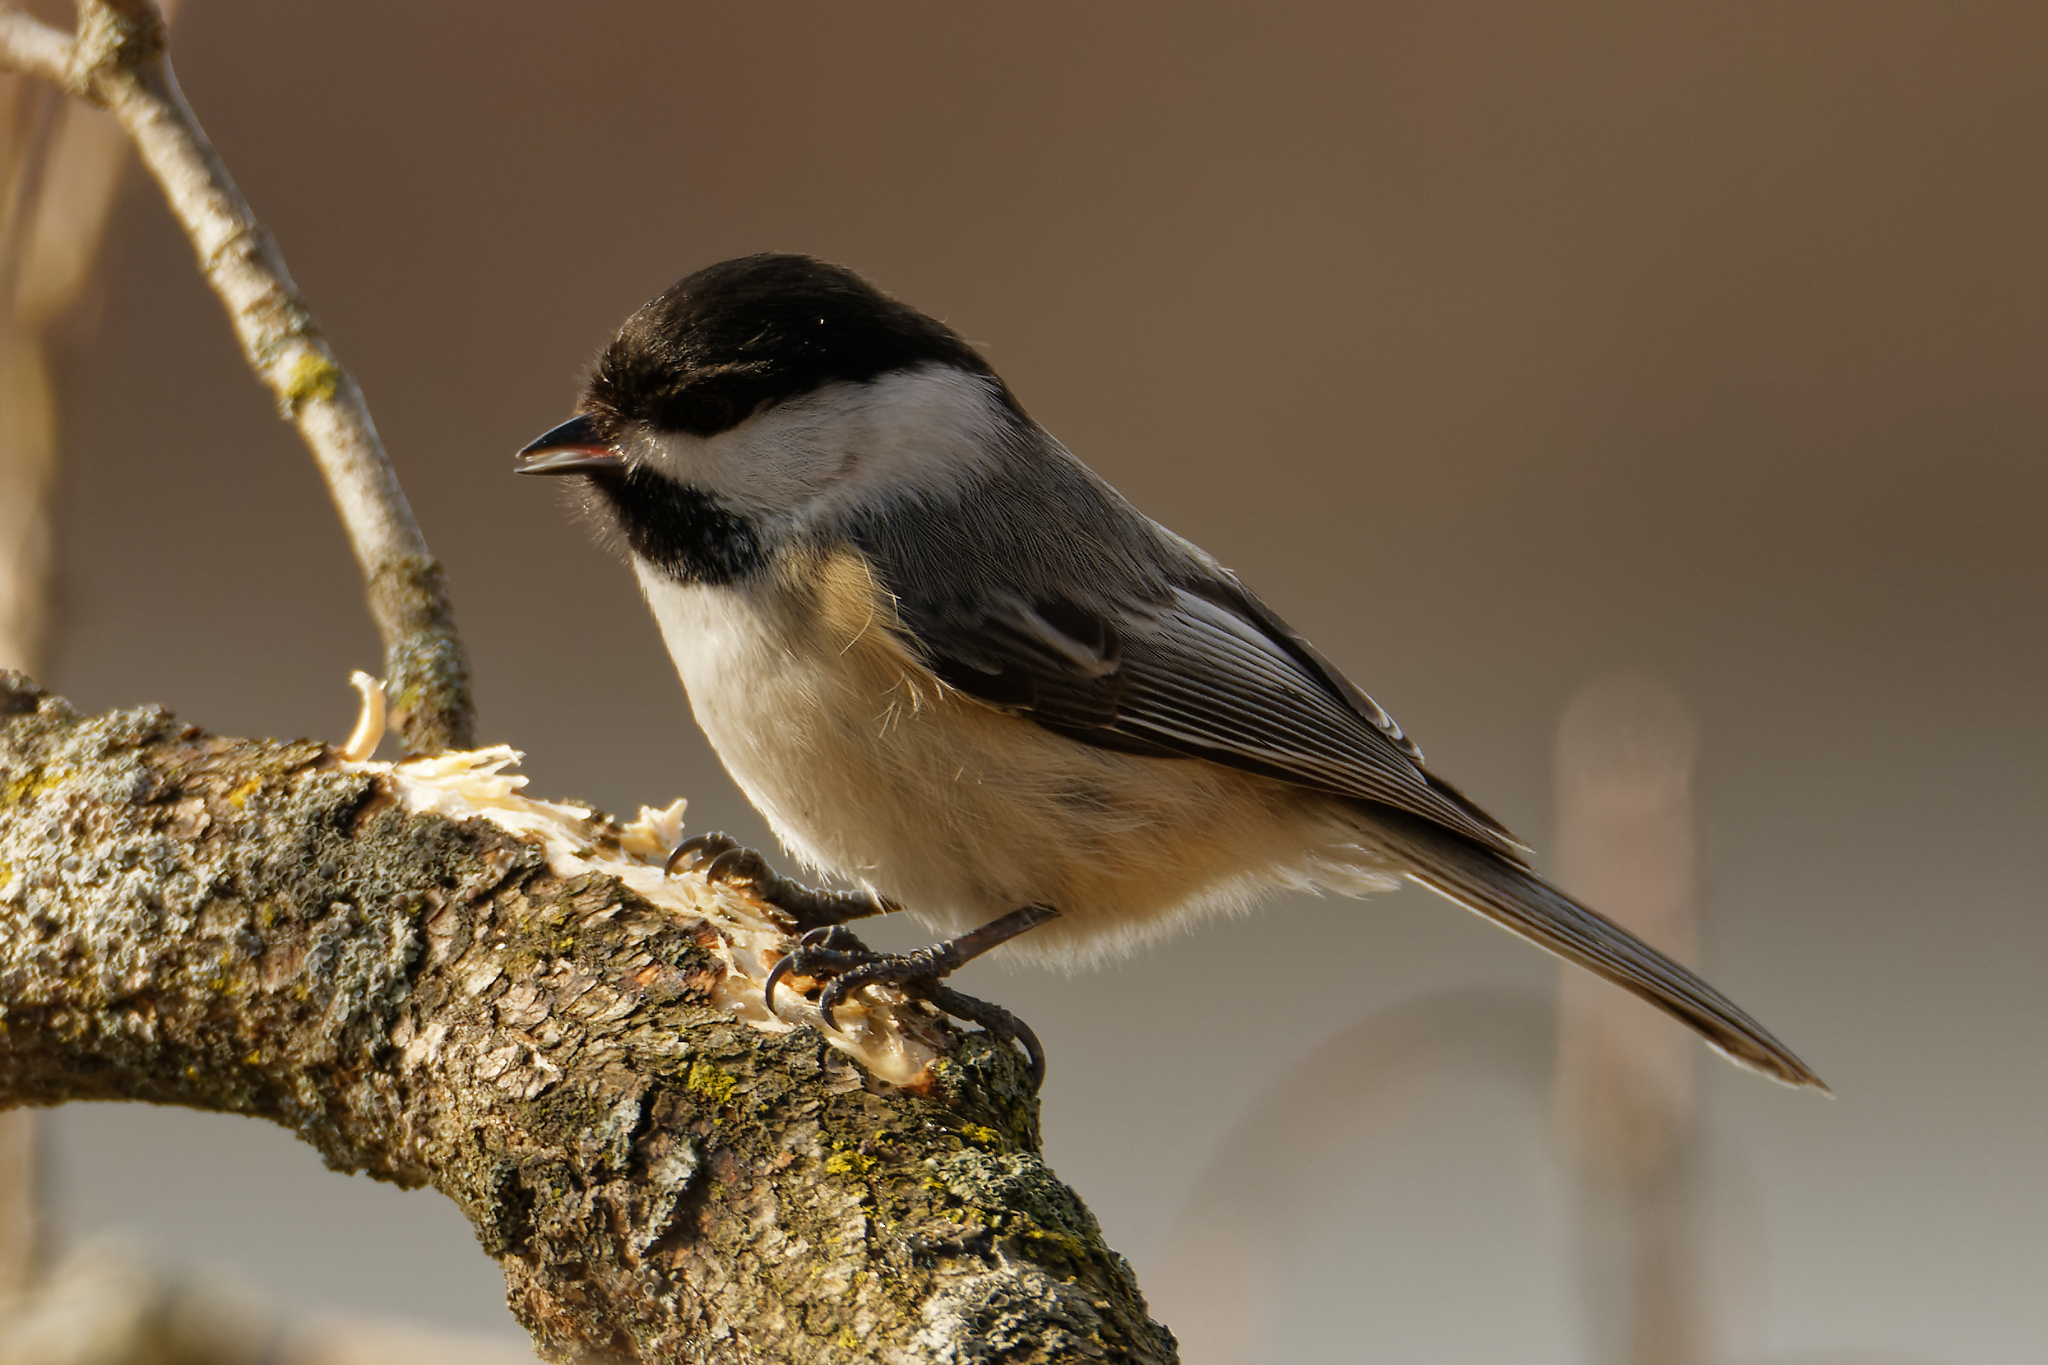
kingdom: Animalia
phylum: Chordata
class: Aves
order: Passeriformes
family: Paridae
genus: Poecile
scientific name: Poecile atricapillus
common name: Black-capped chickadee
